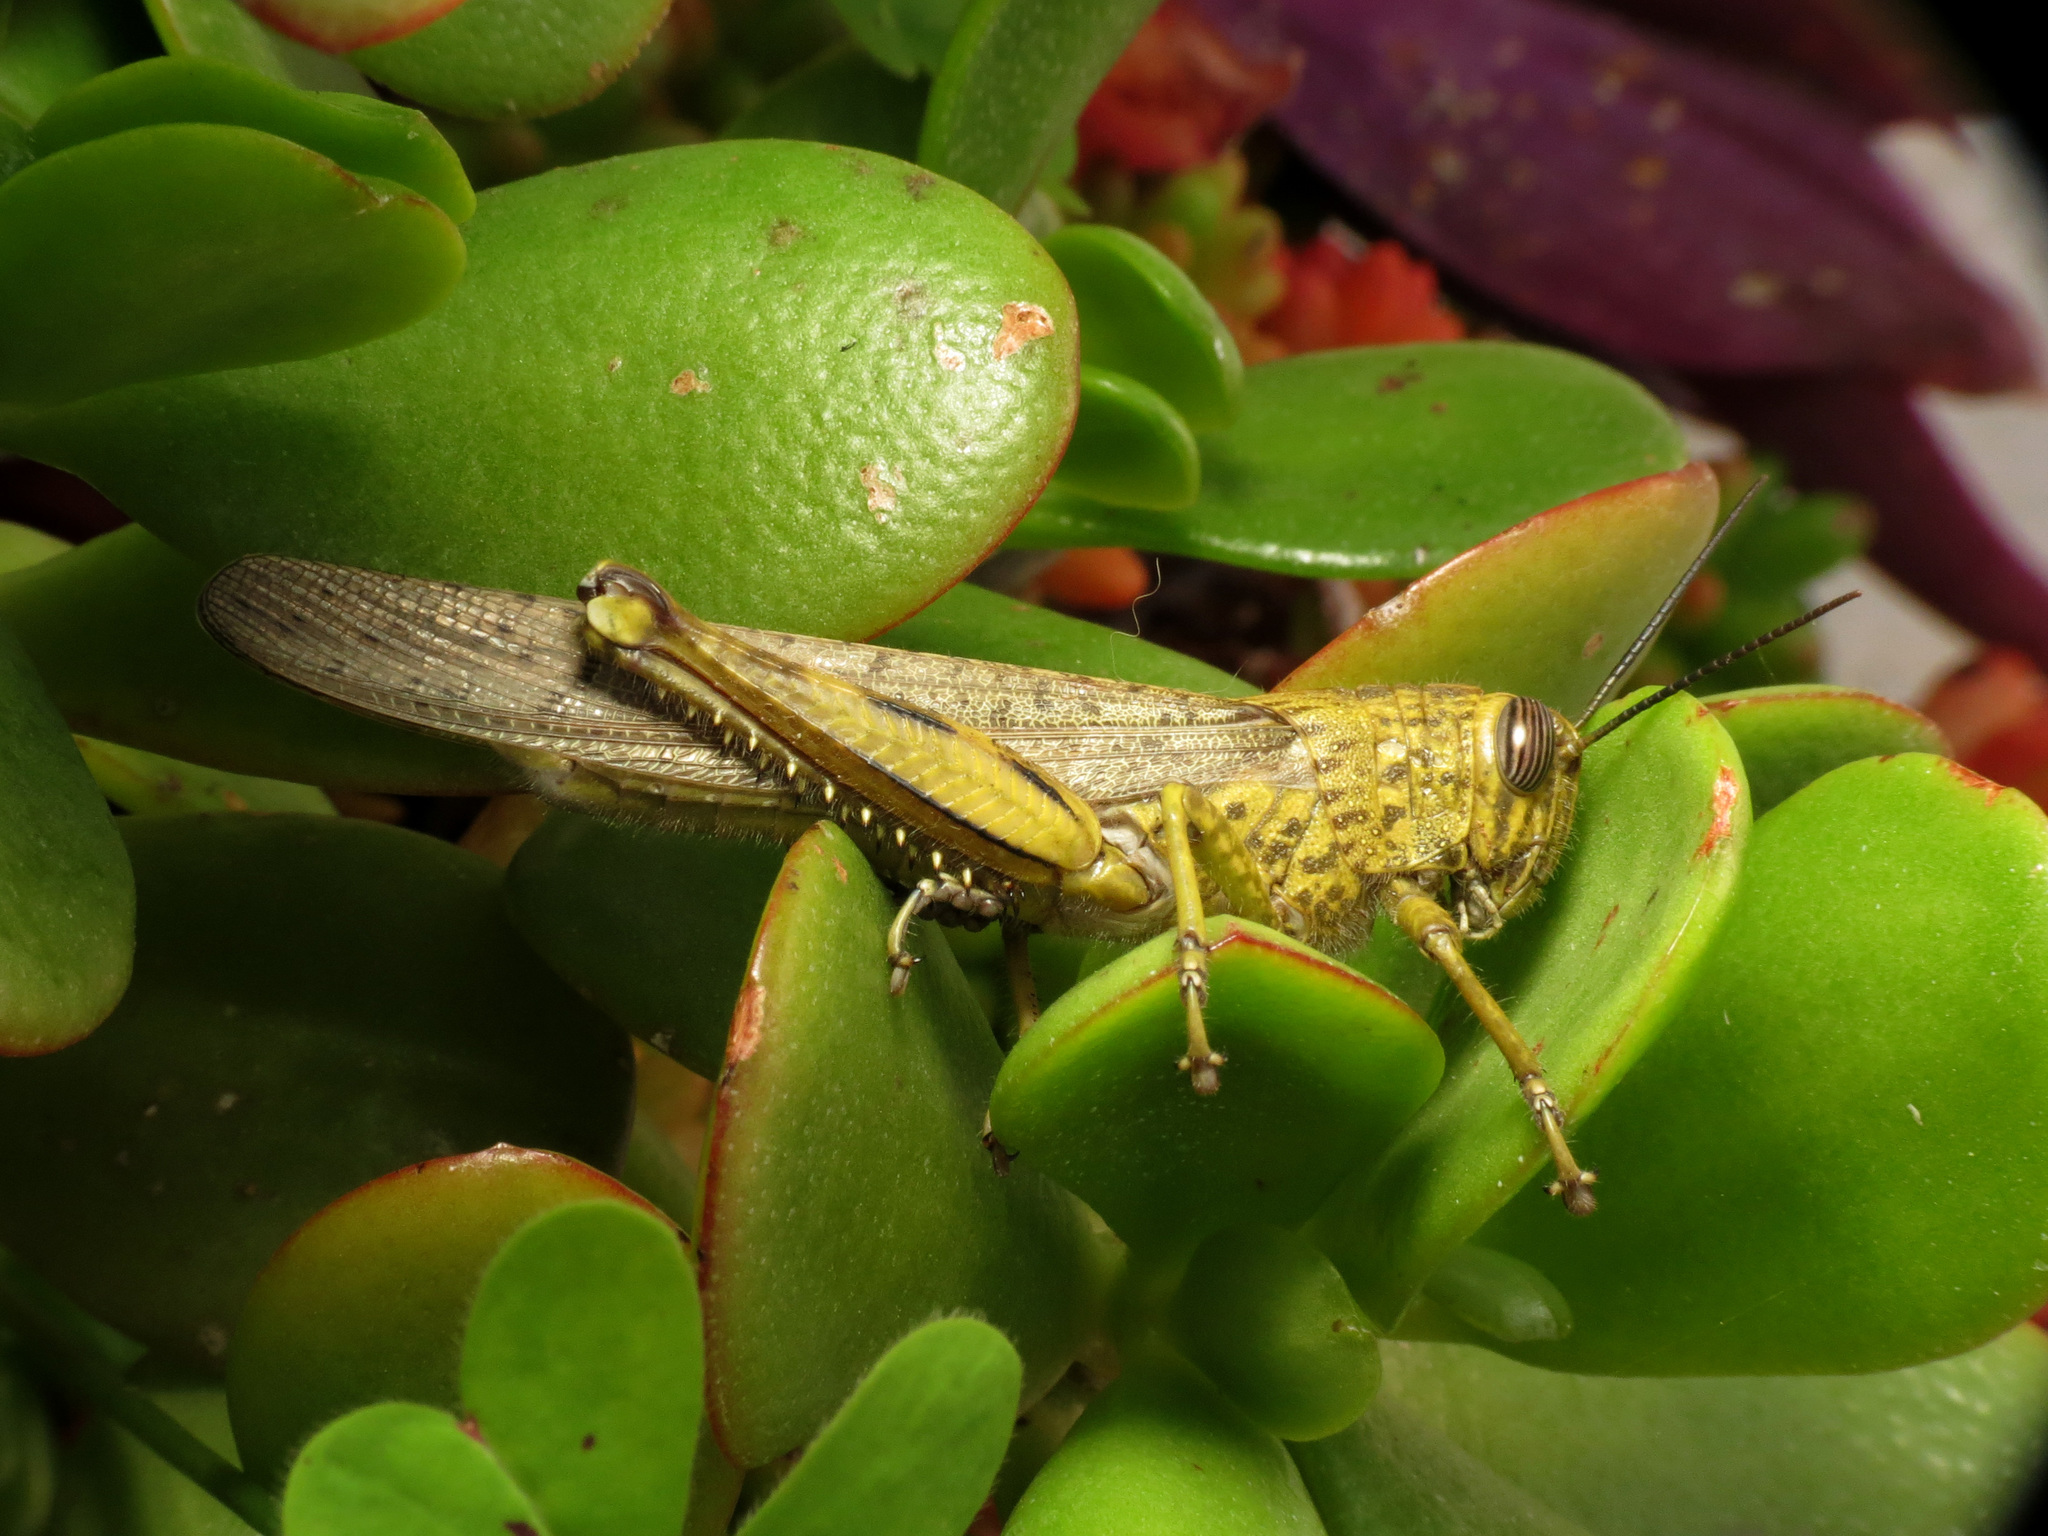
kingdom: Animalia
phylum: Arthropoda
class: Insecta
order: Orthoptera
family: Acrididae
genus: Anacridium
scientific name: Anacridium aegyptium
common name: Egyptian grasshopper
